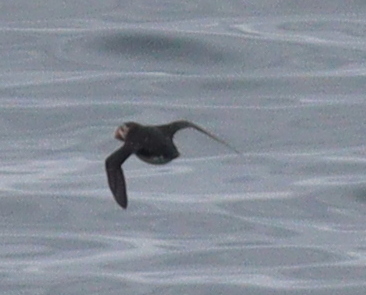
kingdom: Animalia
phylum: Chordata
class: Aves
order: Charadriiformes
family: Alcidae
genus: Fratercula
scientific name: Fratercula arctica
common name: Atlantic puffin
